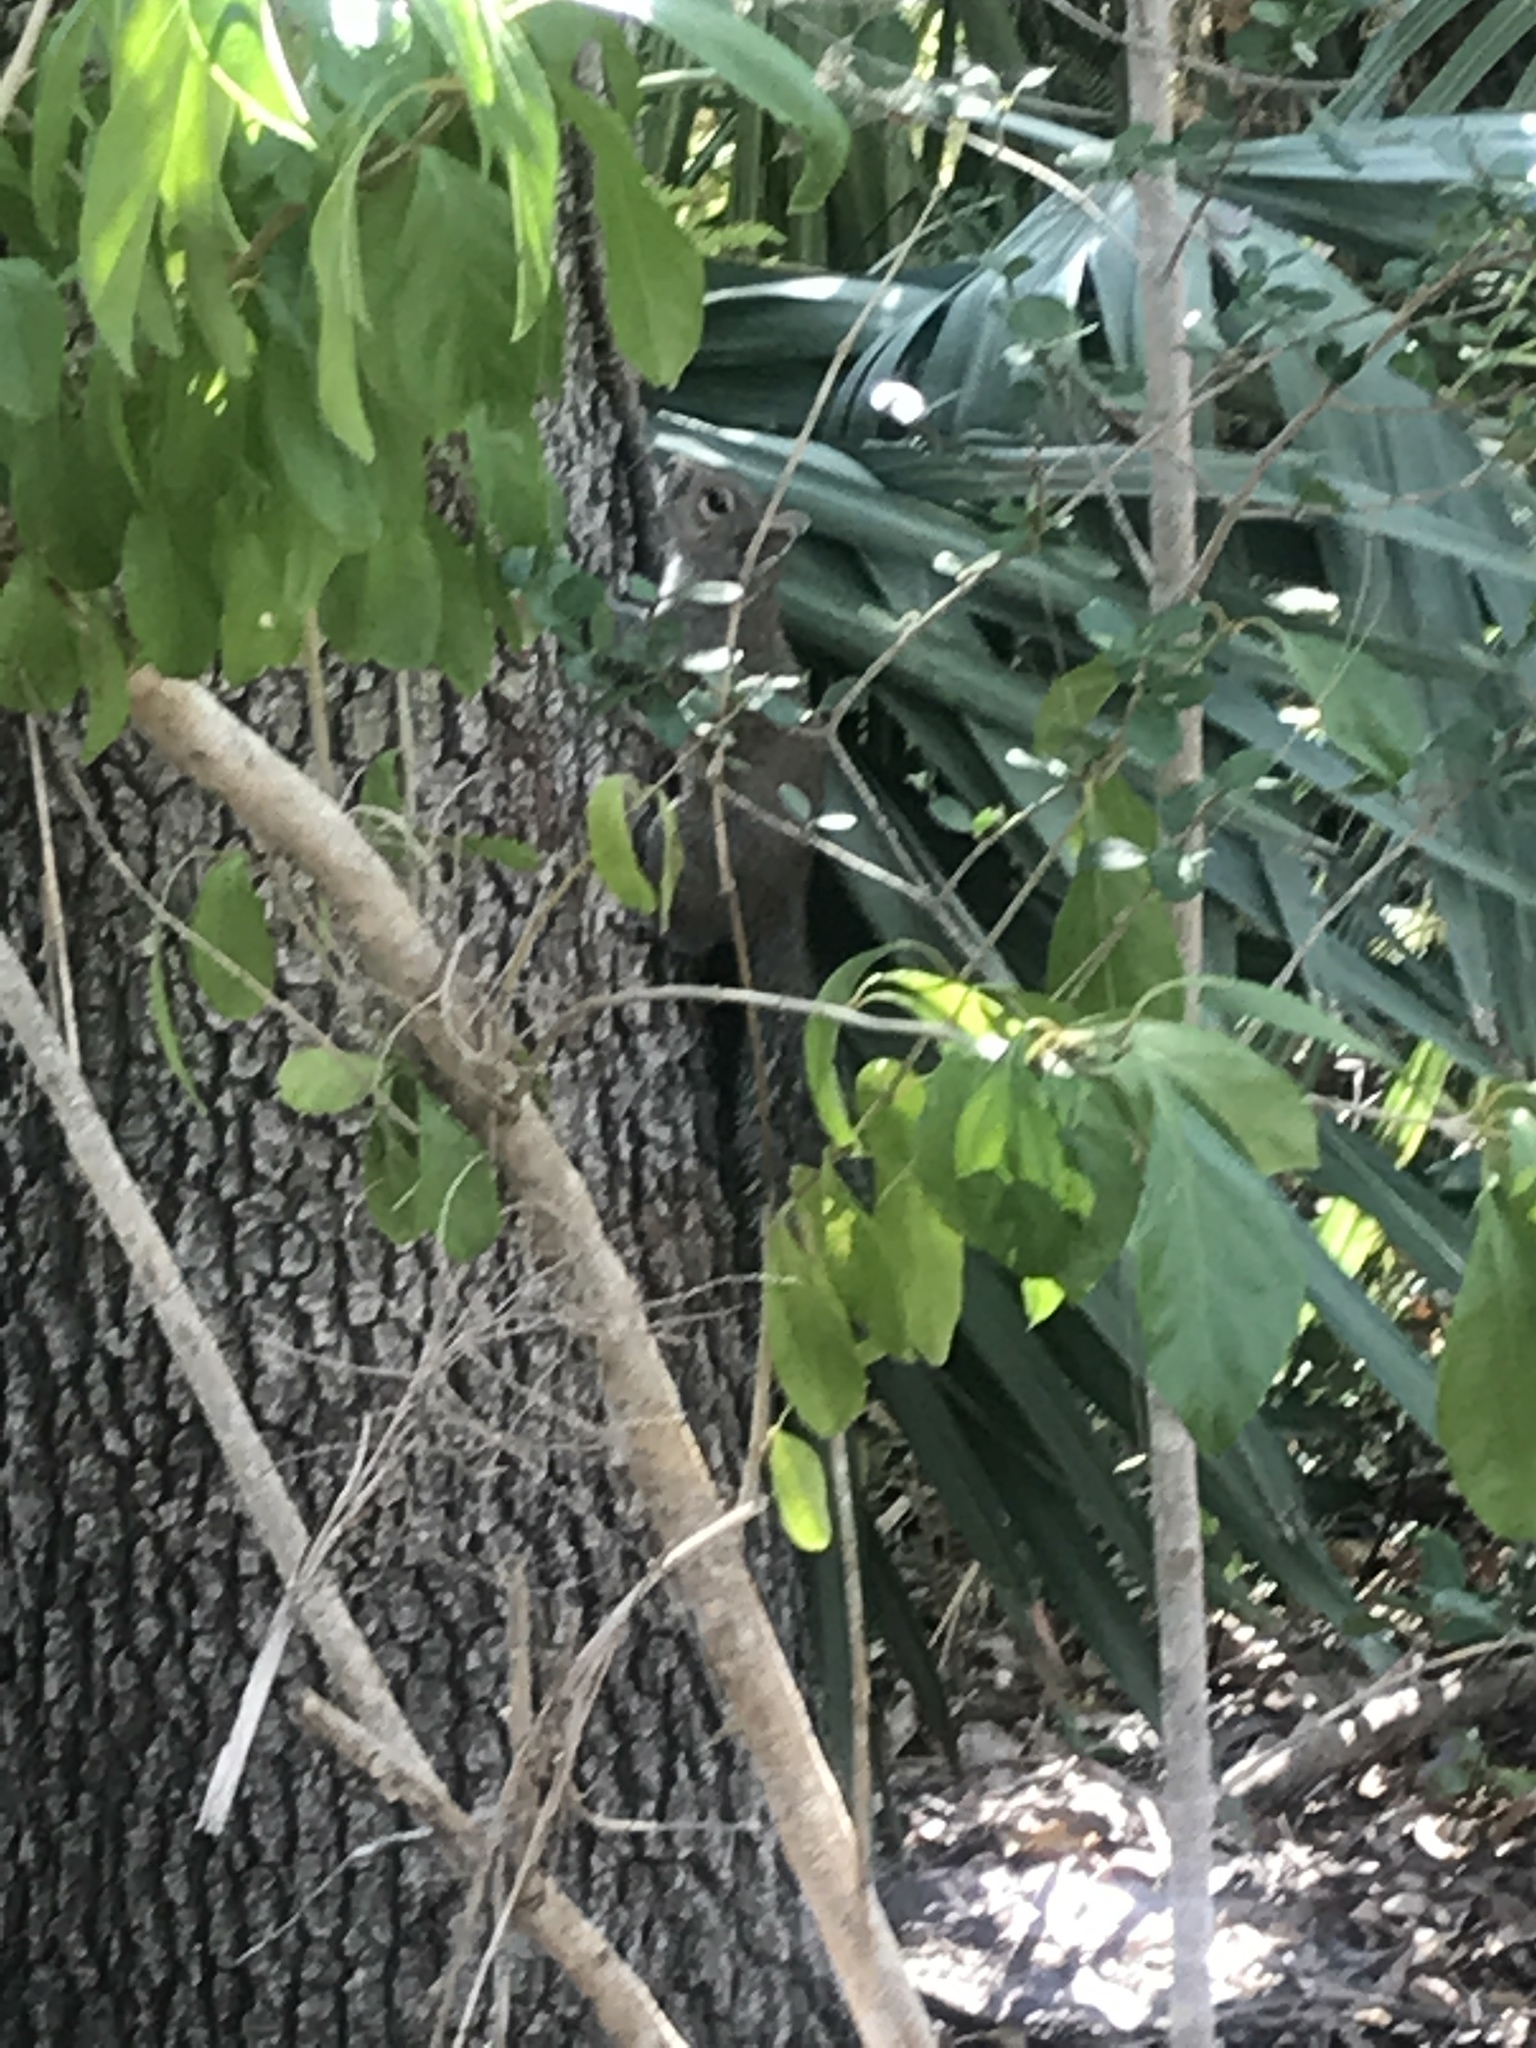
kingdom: Animalia
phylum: Chordata
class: Mammalia
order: Rodentia
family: Sciuridae
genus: Sciurus
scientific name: Sciurus carolinensis
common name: Eastern gray squirrel
